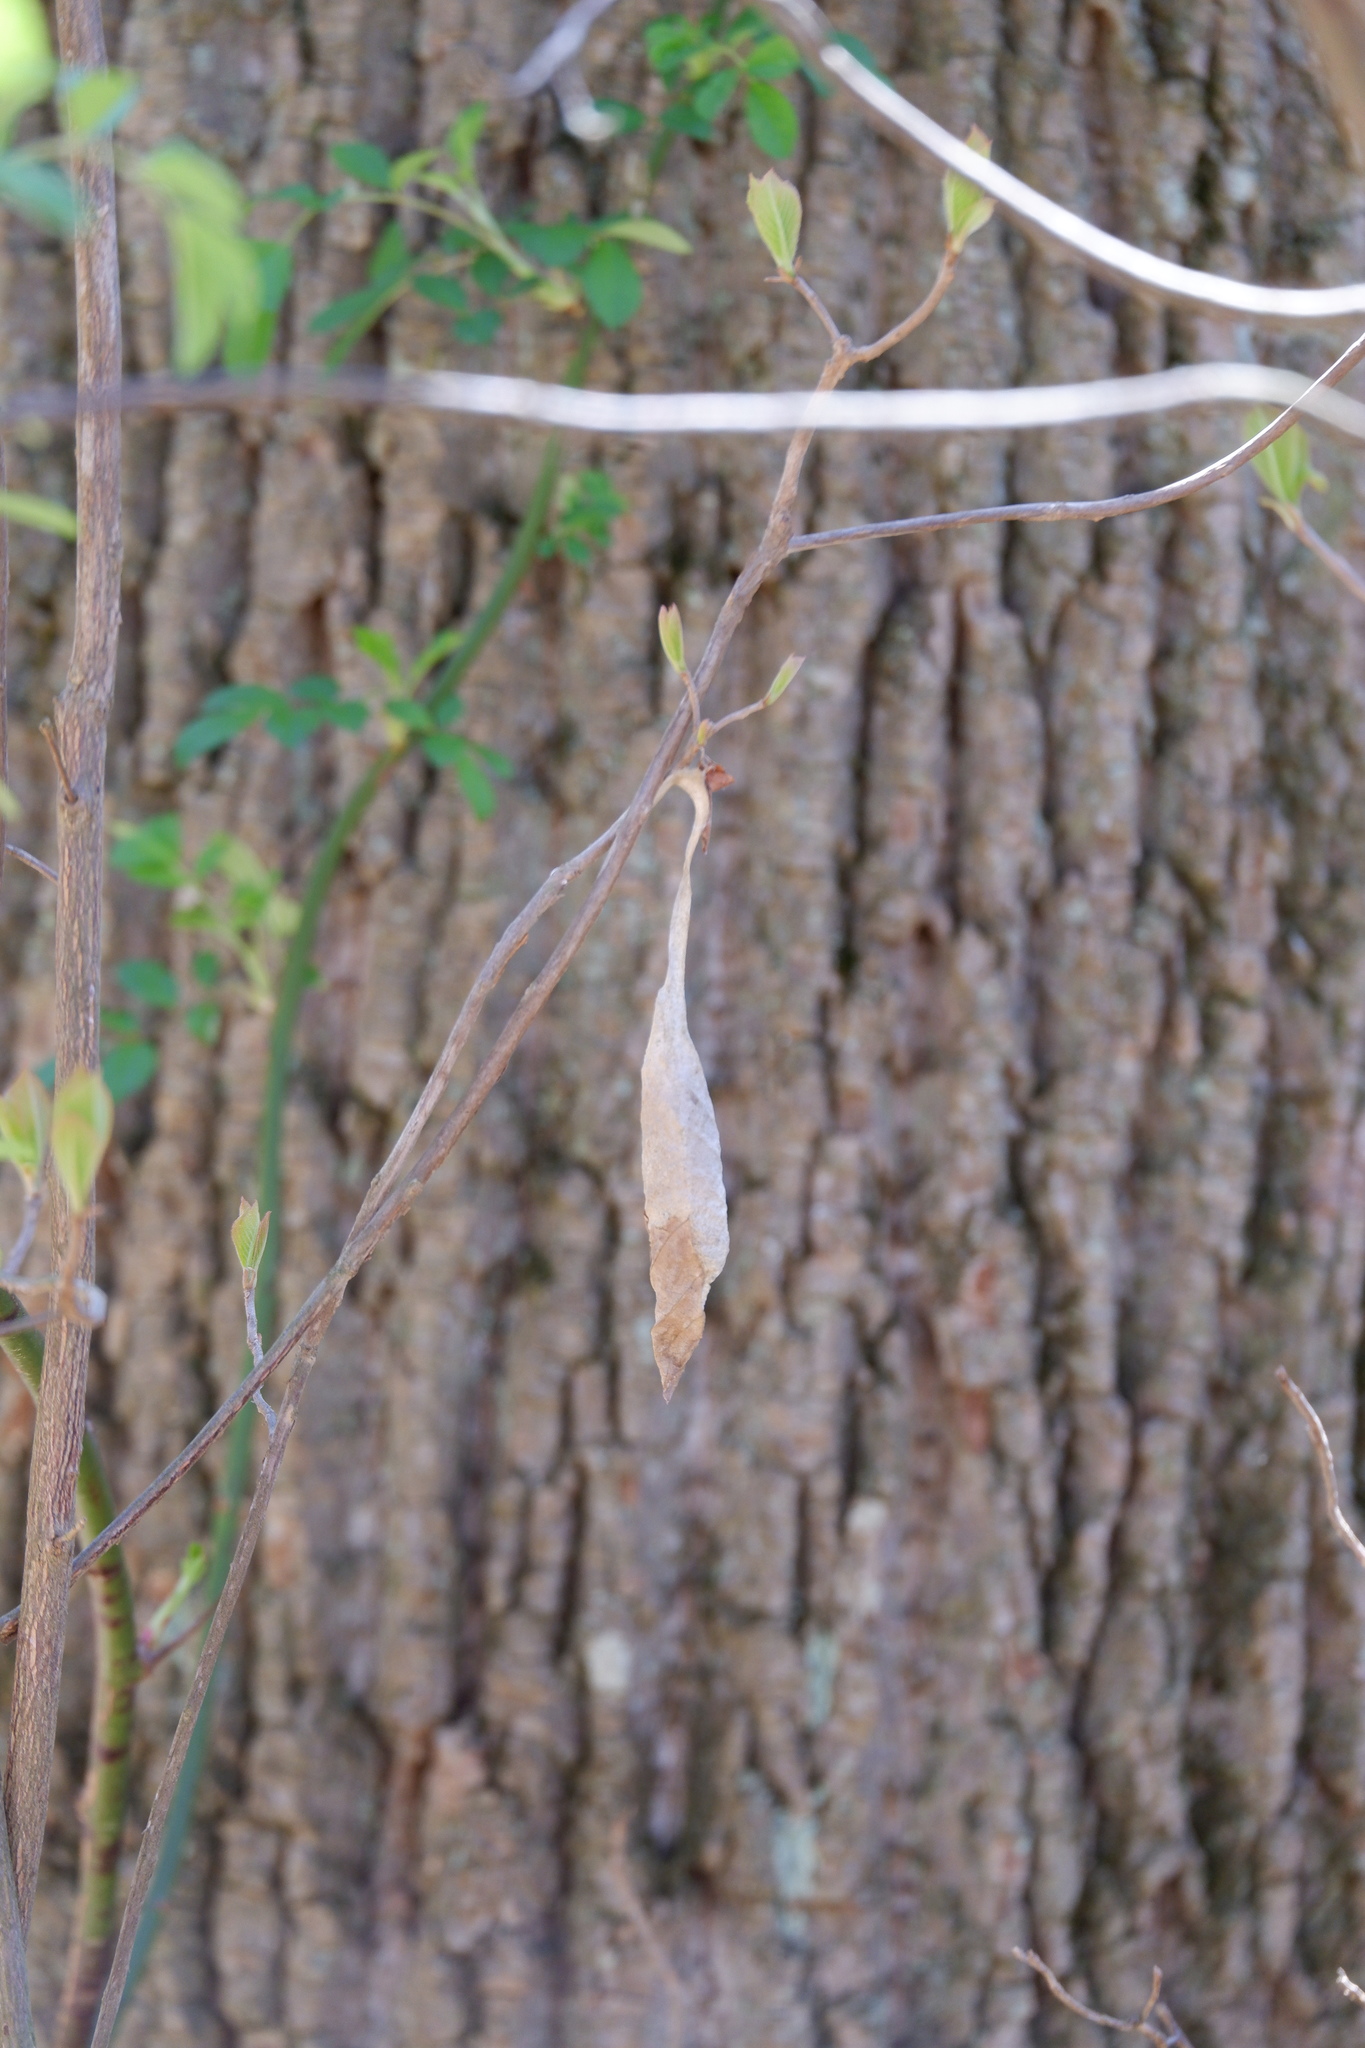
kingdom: Animalia
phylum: Arthropoda
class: Insecta
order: Lepidoptera
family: Saturniidae
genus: Callosamia
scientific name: Callosamia promethea
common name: Promethea silkmoth
